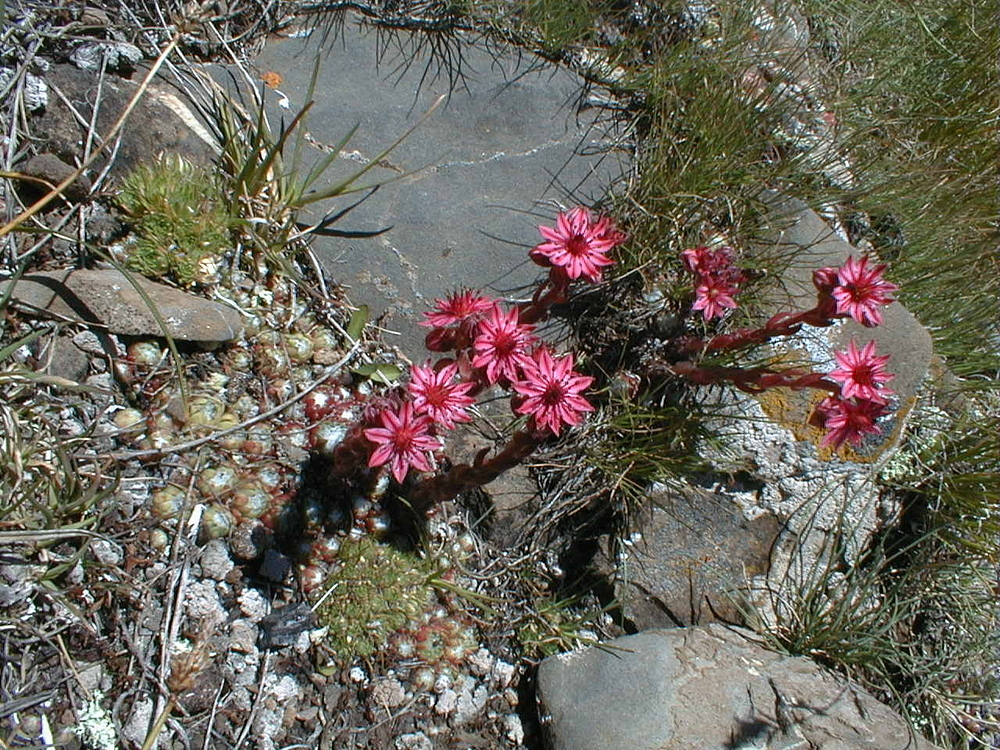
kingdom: Plantae
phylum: Tracheophyta
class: Magnoliopsida
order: Saxifragales
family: Crassulaceae
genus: Sempervivum
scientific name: Sempervivum arachnoideum
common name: Cobweb house-leek
